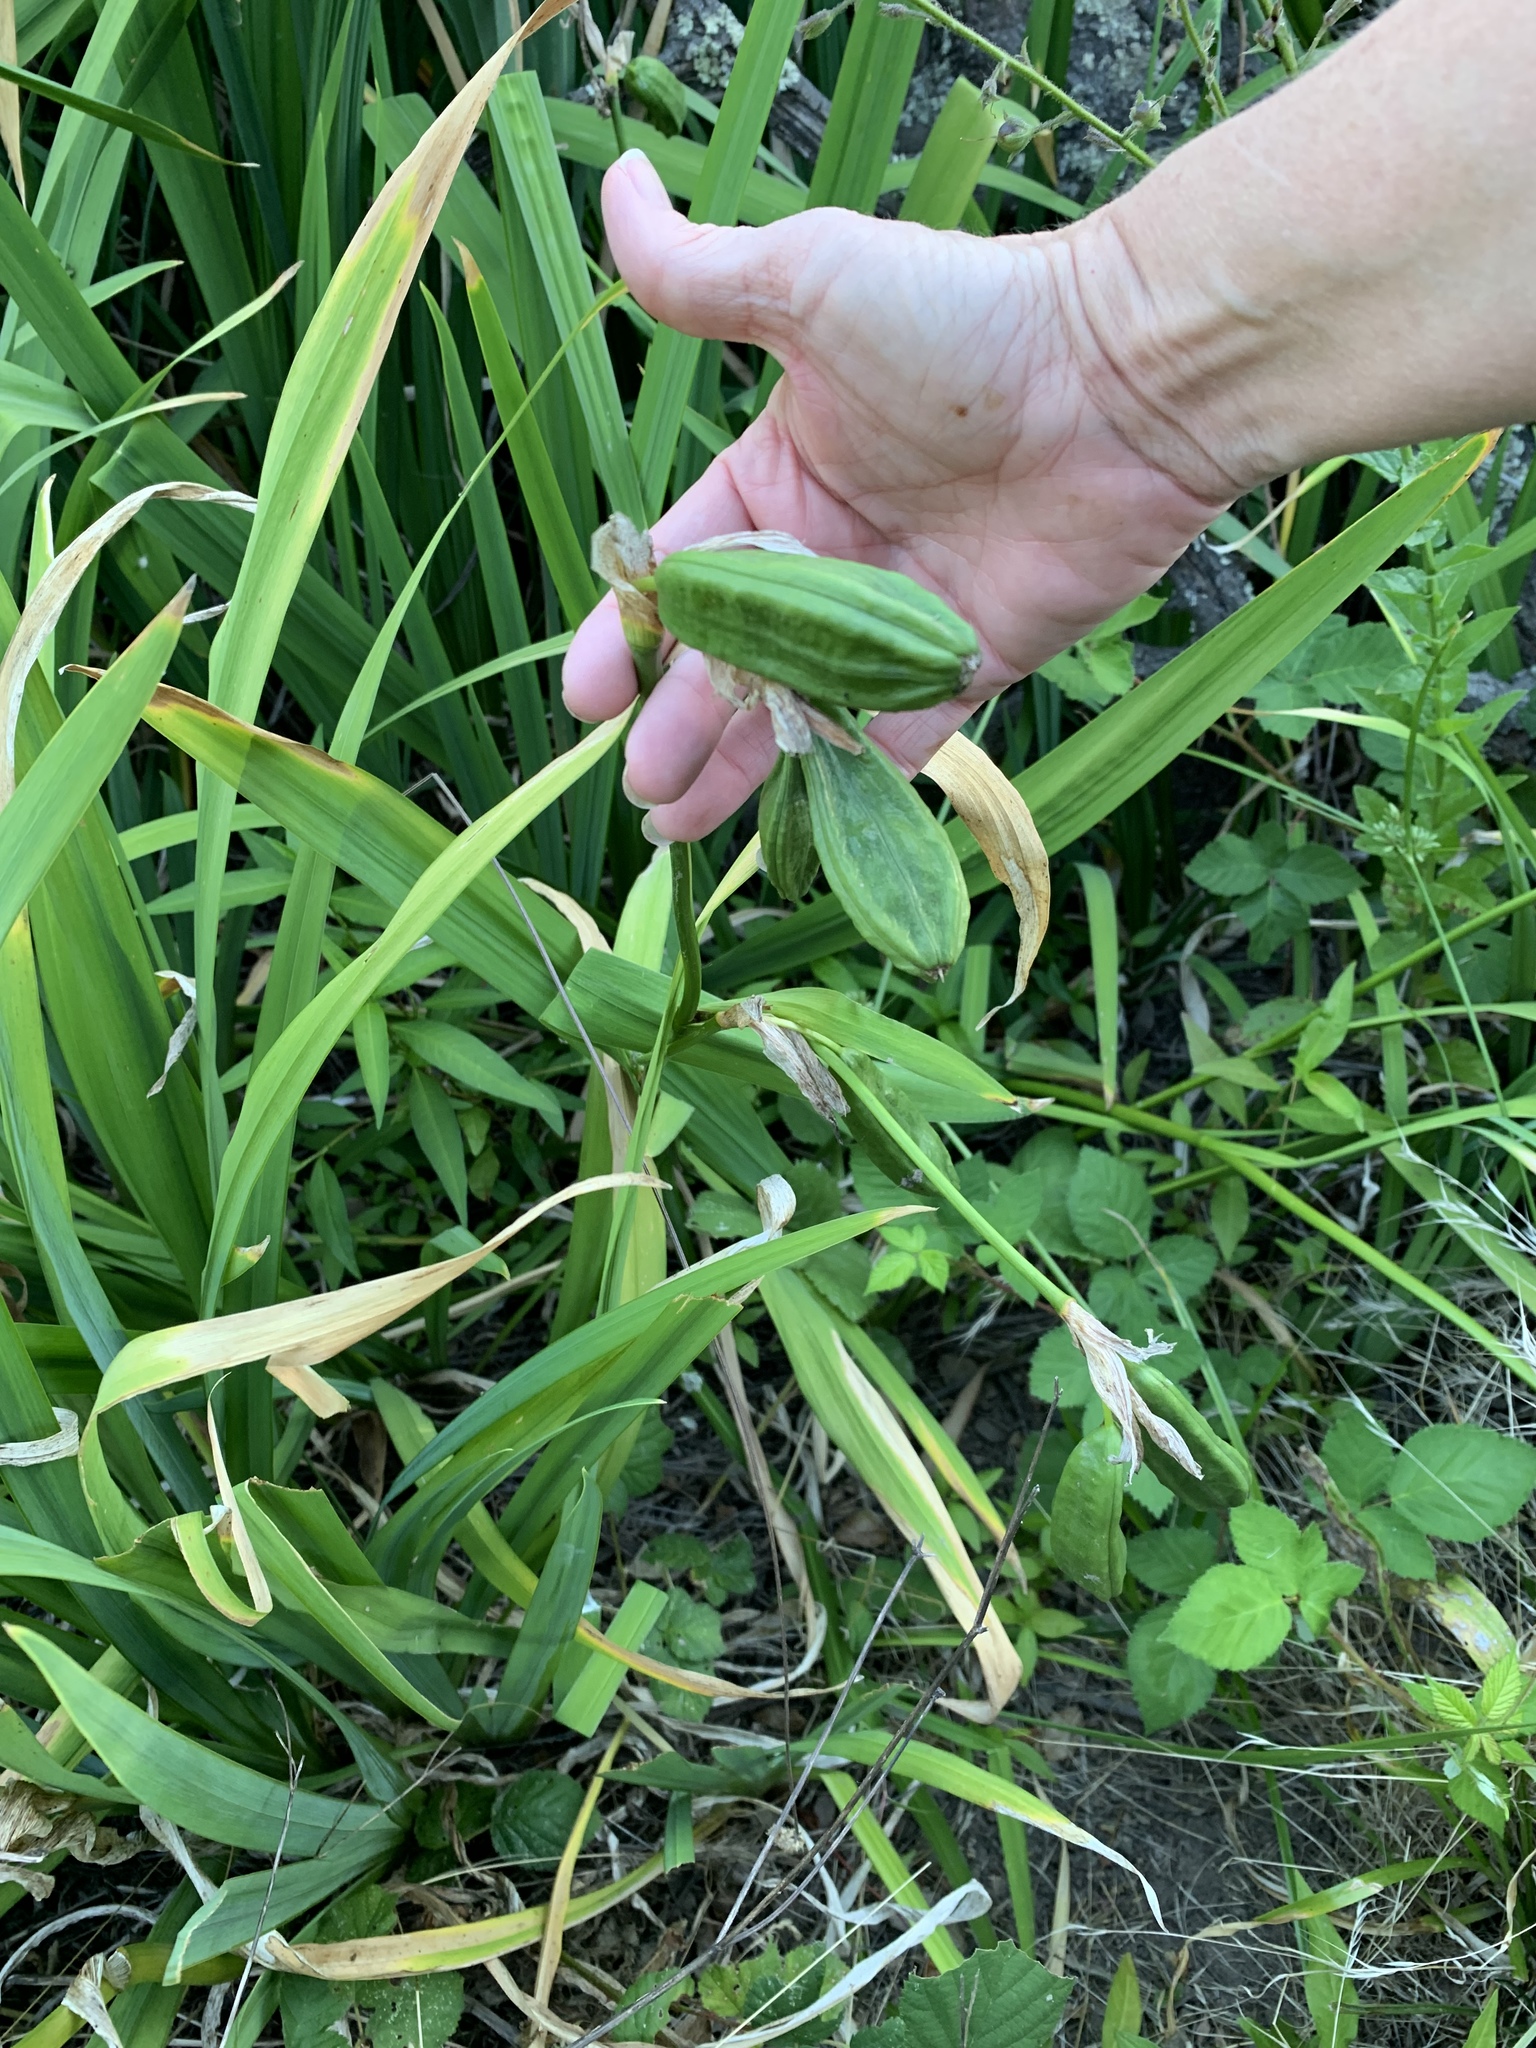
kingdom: Plantae
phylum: Tracheophyta
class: Liliopsida
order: Asparagales
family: Iridaceae
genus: Iris
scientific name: Iris pseudacorus
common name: Yellow flag
